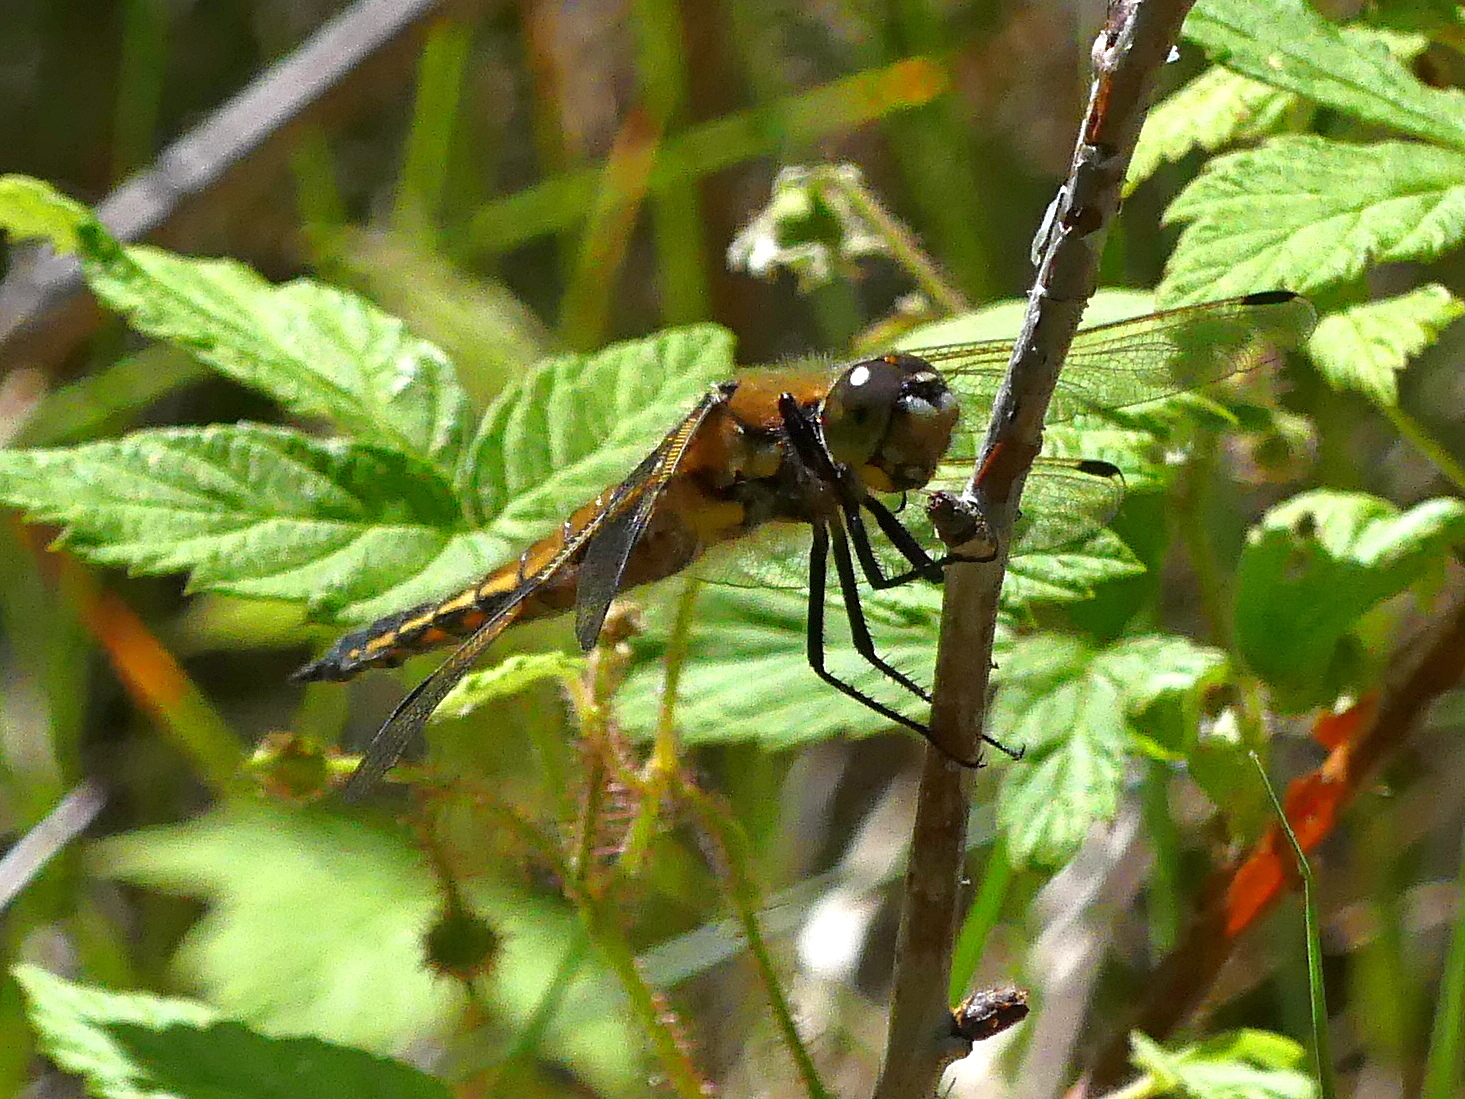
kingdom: Animalia
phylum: Arthropoda
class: Insecta
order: Odonata
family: Libellulidae
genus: Libellula
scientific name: Libellula quadrimaculata
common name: Four-spotted chaser
